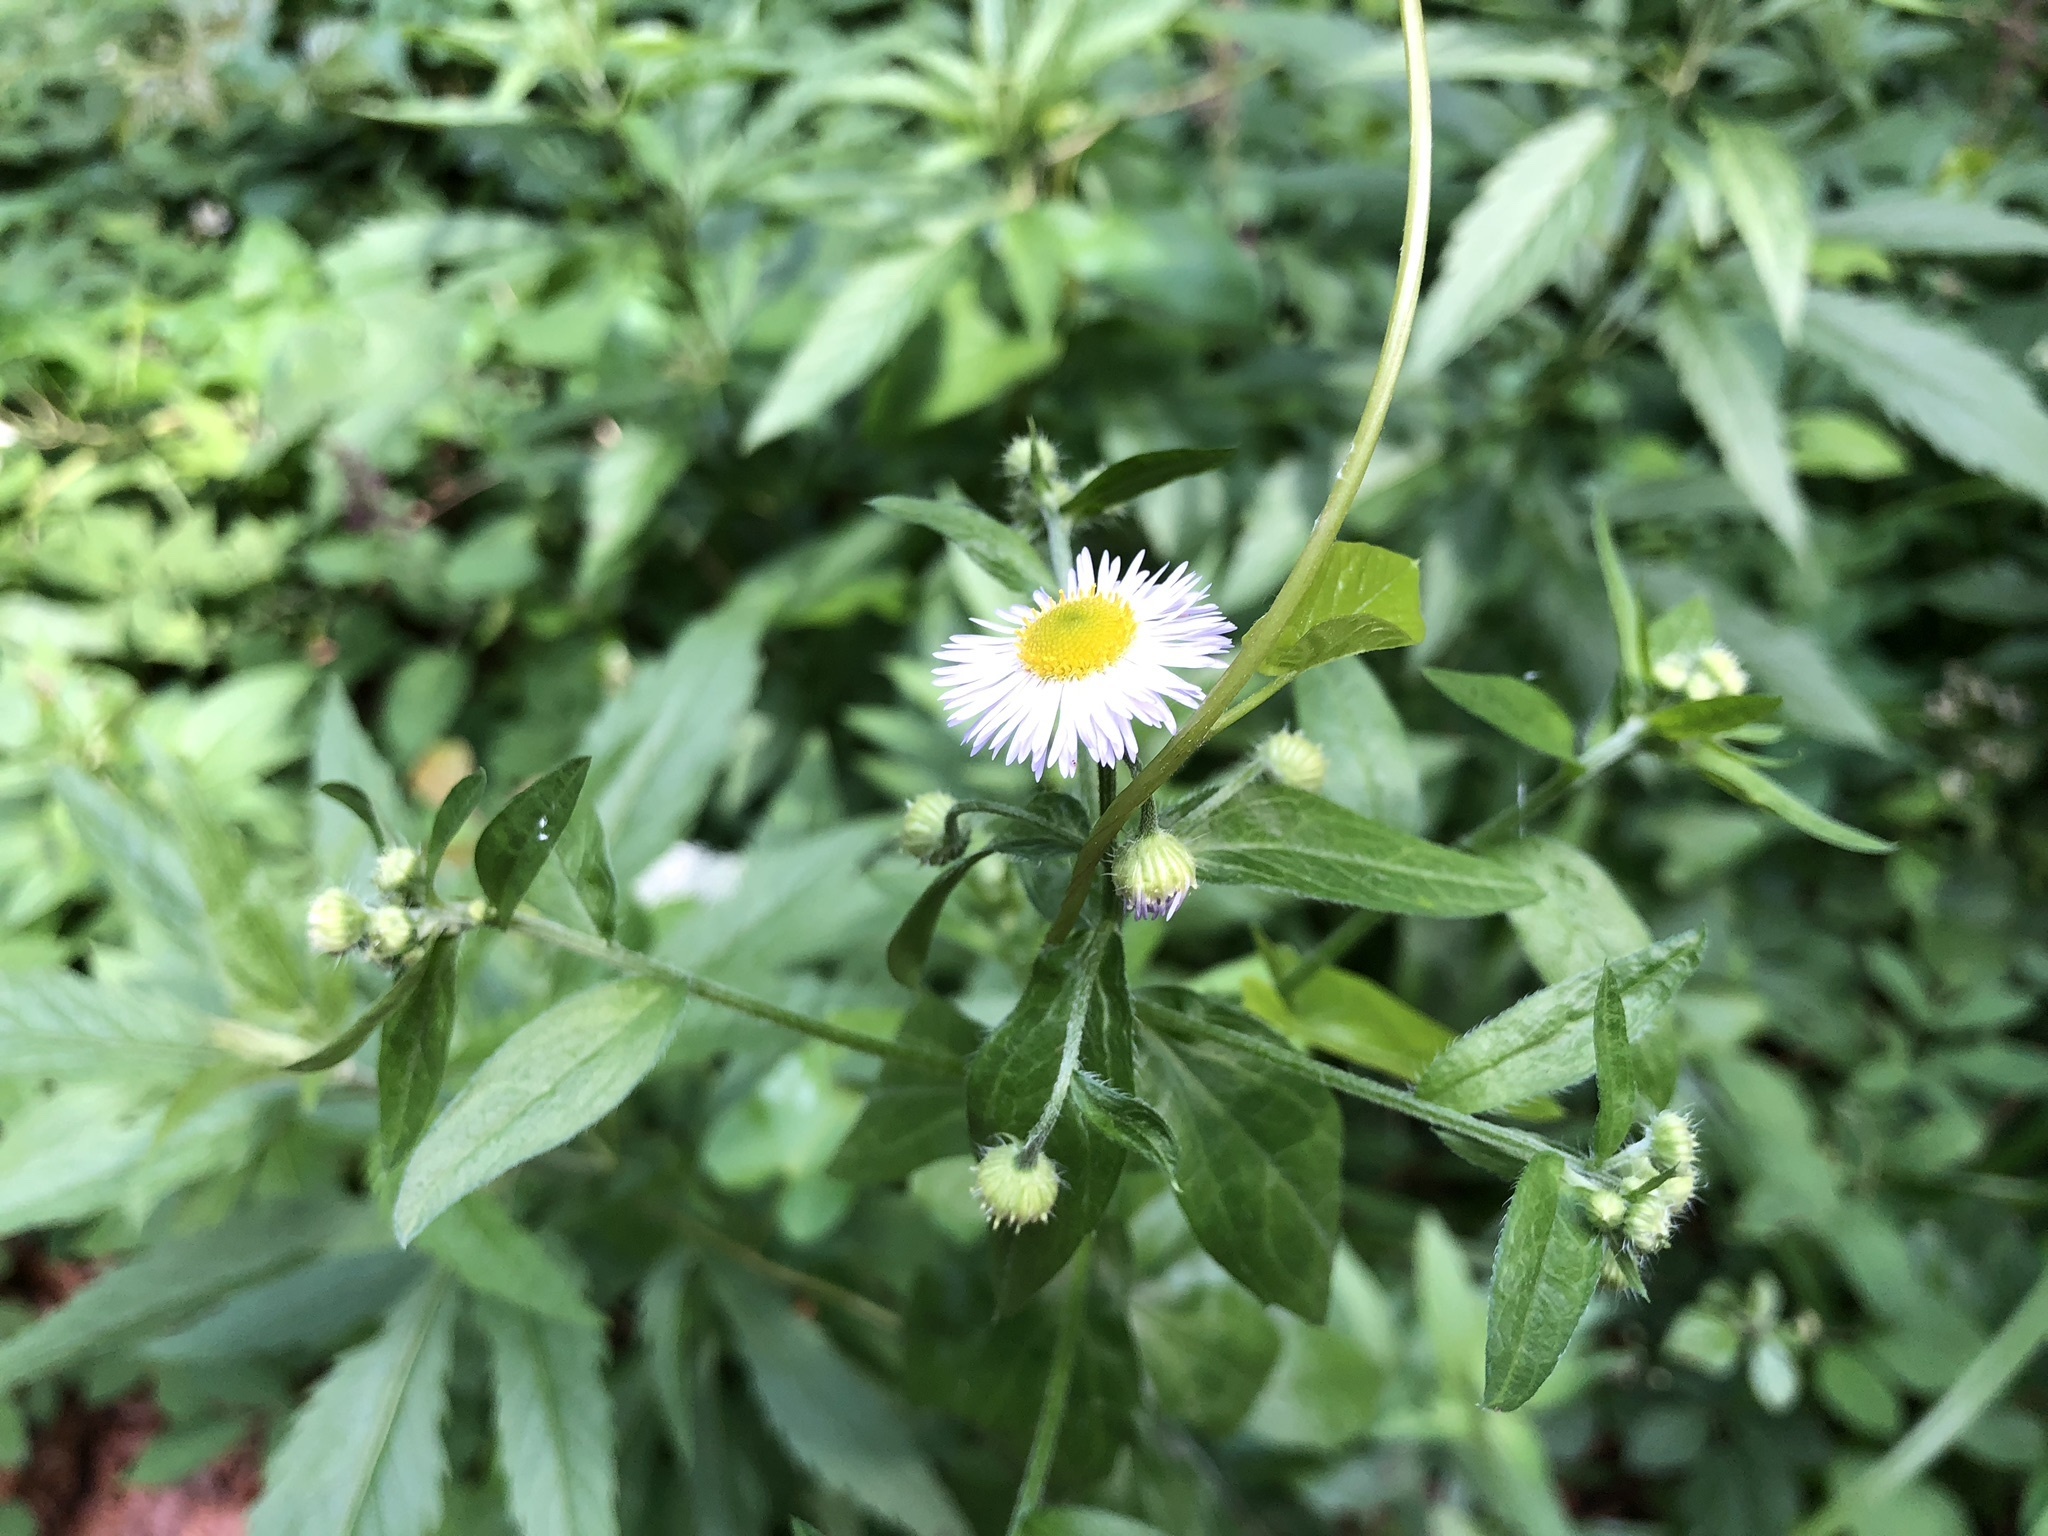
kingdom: Plantae
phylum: Tracheophyta
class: Magnoliopsida
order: Asterales
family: Asteraceae
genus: Erigeron
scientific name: Erigeron annuus
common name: Tall fleabane
